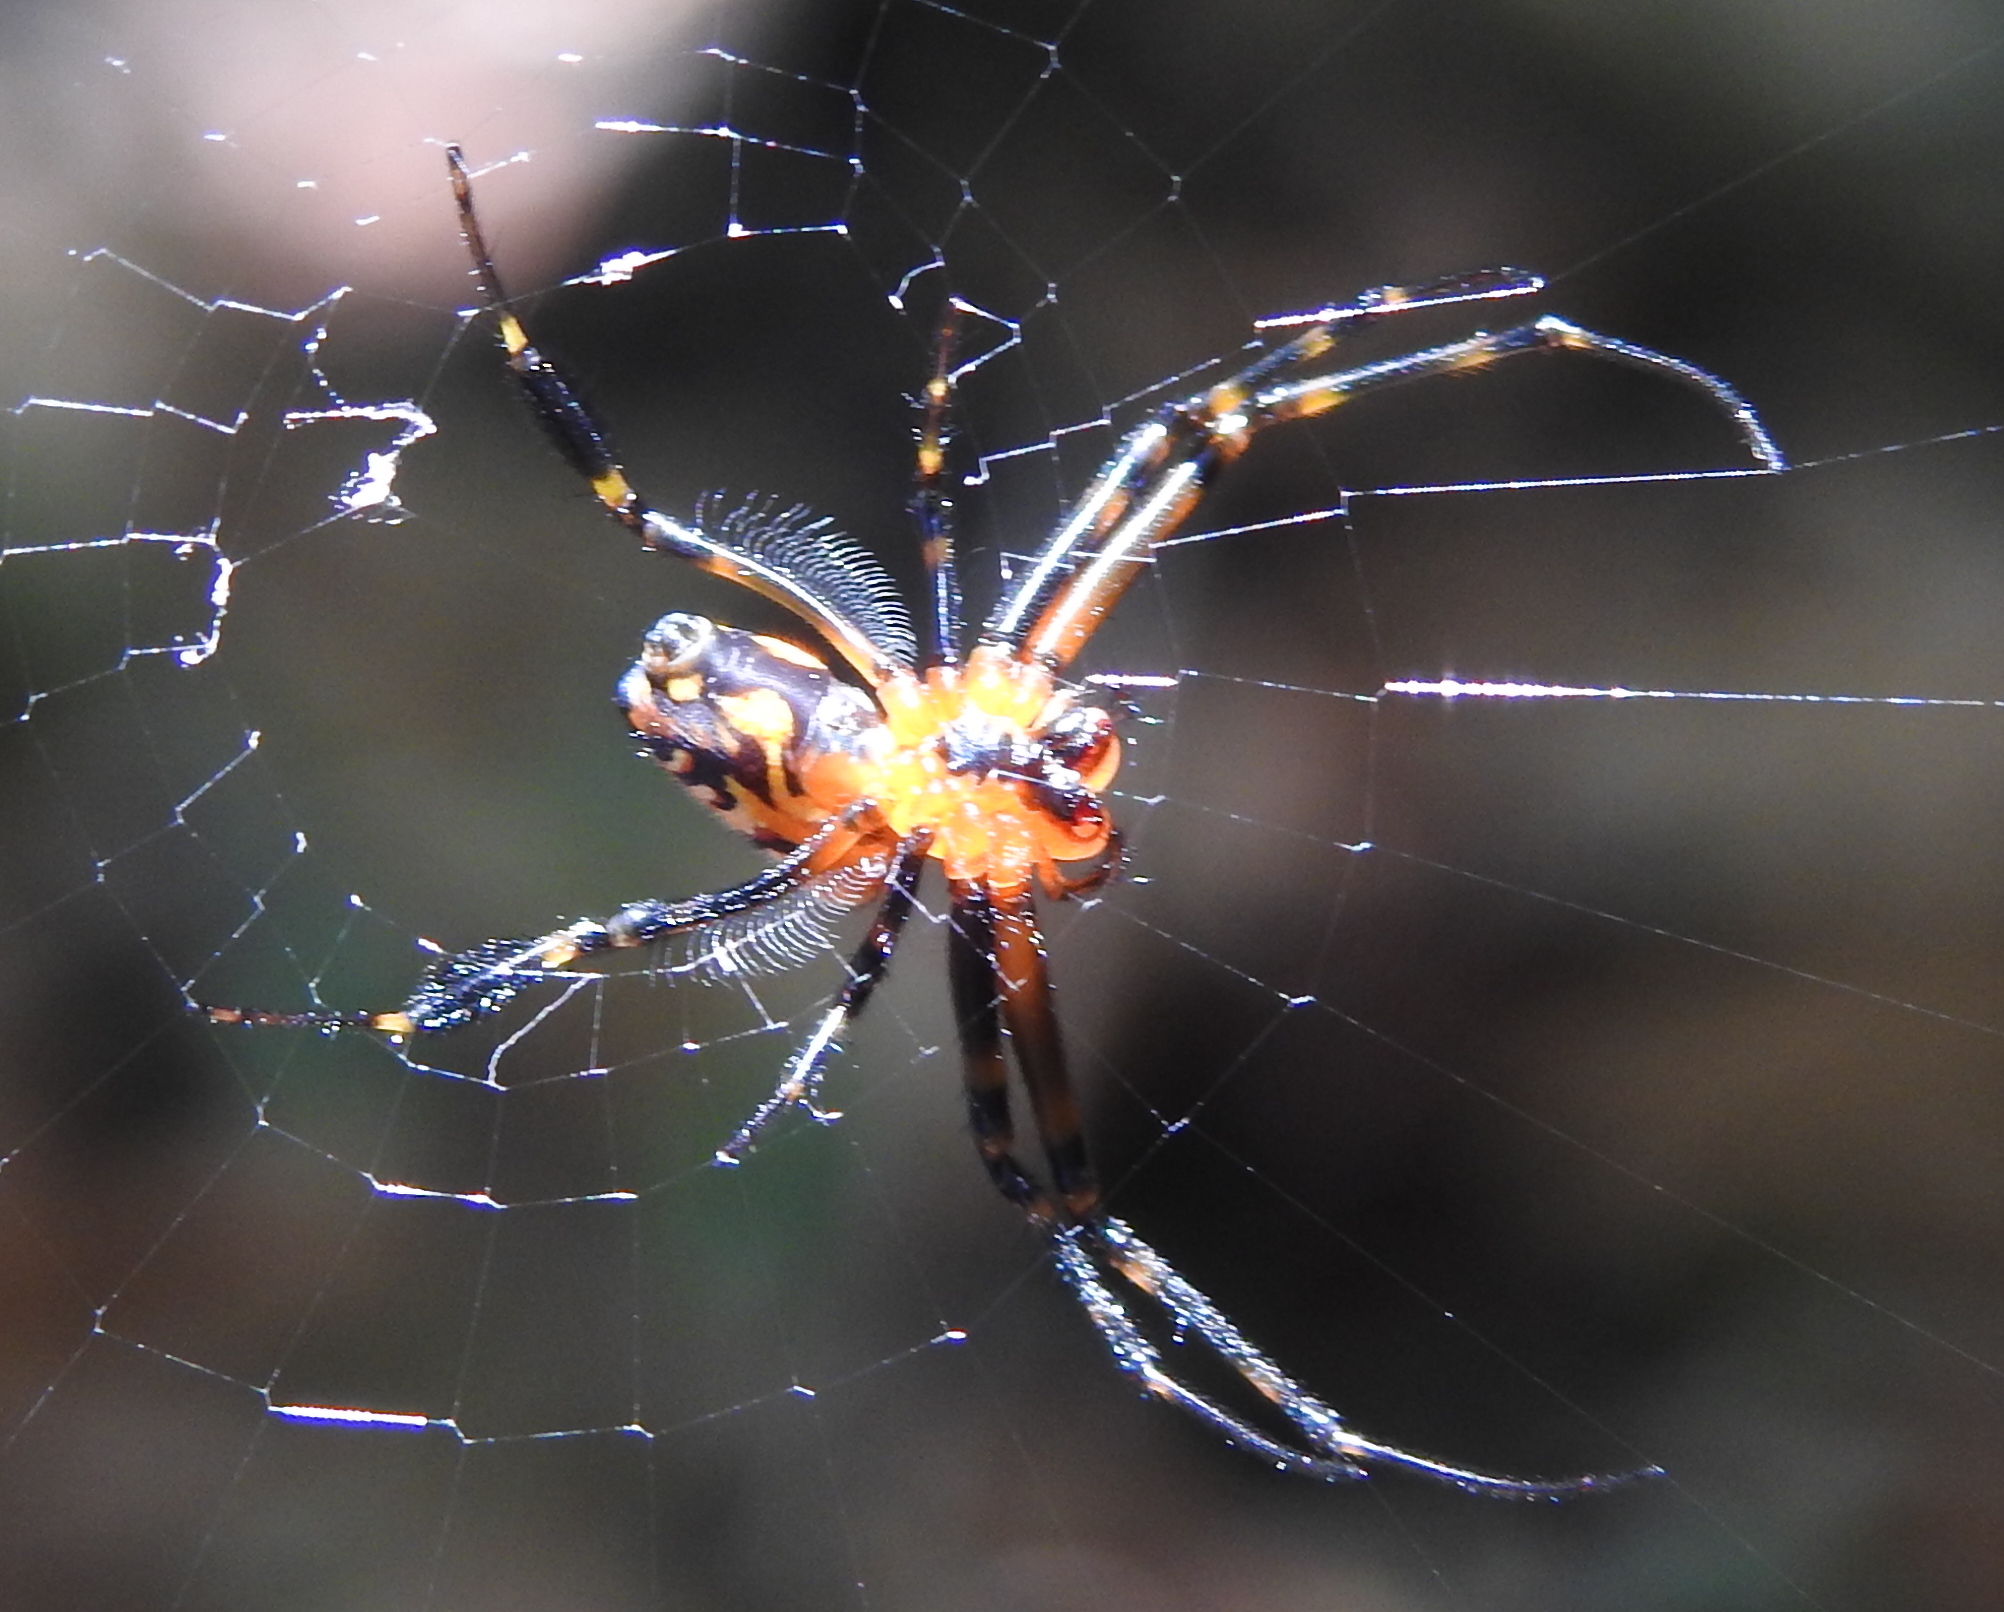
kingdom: Animalia
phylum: Arthropoda
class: Arachnida
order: Araneae
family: Tetragnathidae
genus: Leucauge
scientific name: Leucauge fastigata
